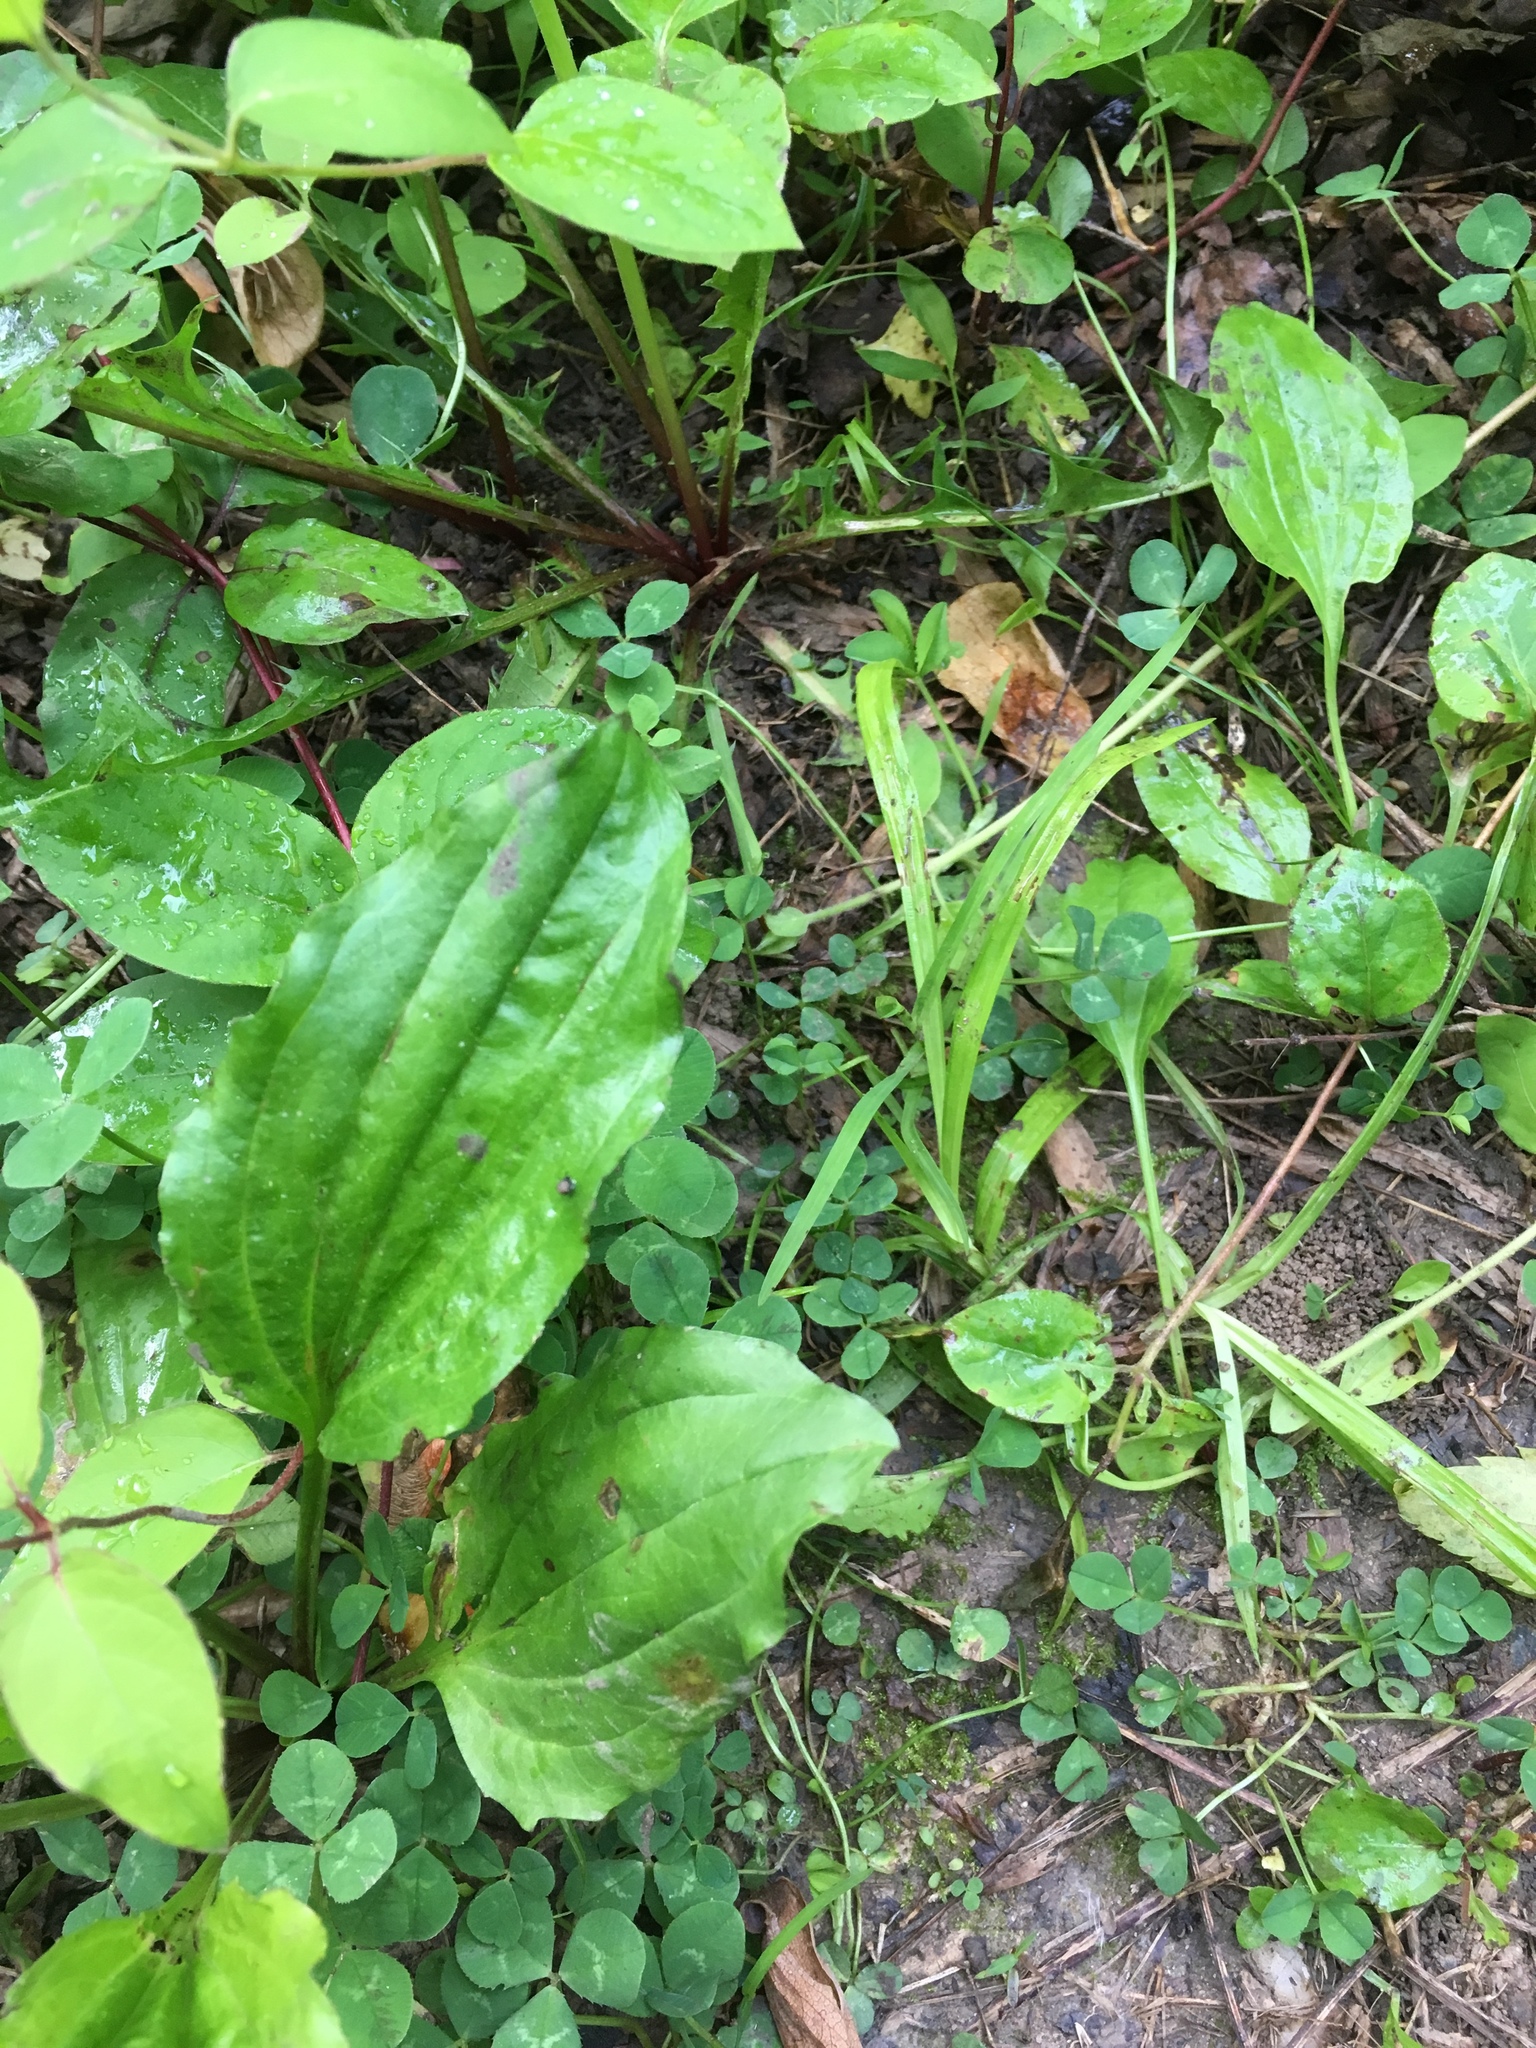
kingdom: Plantae
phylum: Tracheophyta
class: Magnoliopsida
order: Lamiales
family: Plantaginaceae
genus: Plantago
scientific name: Plantago rugelii
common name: American plantain
